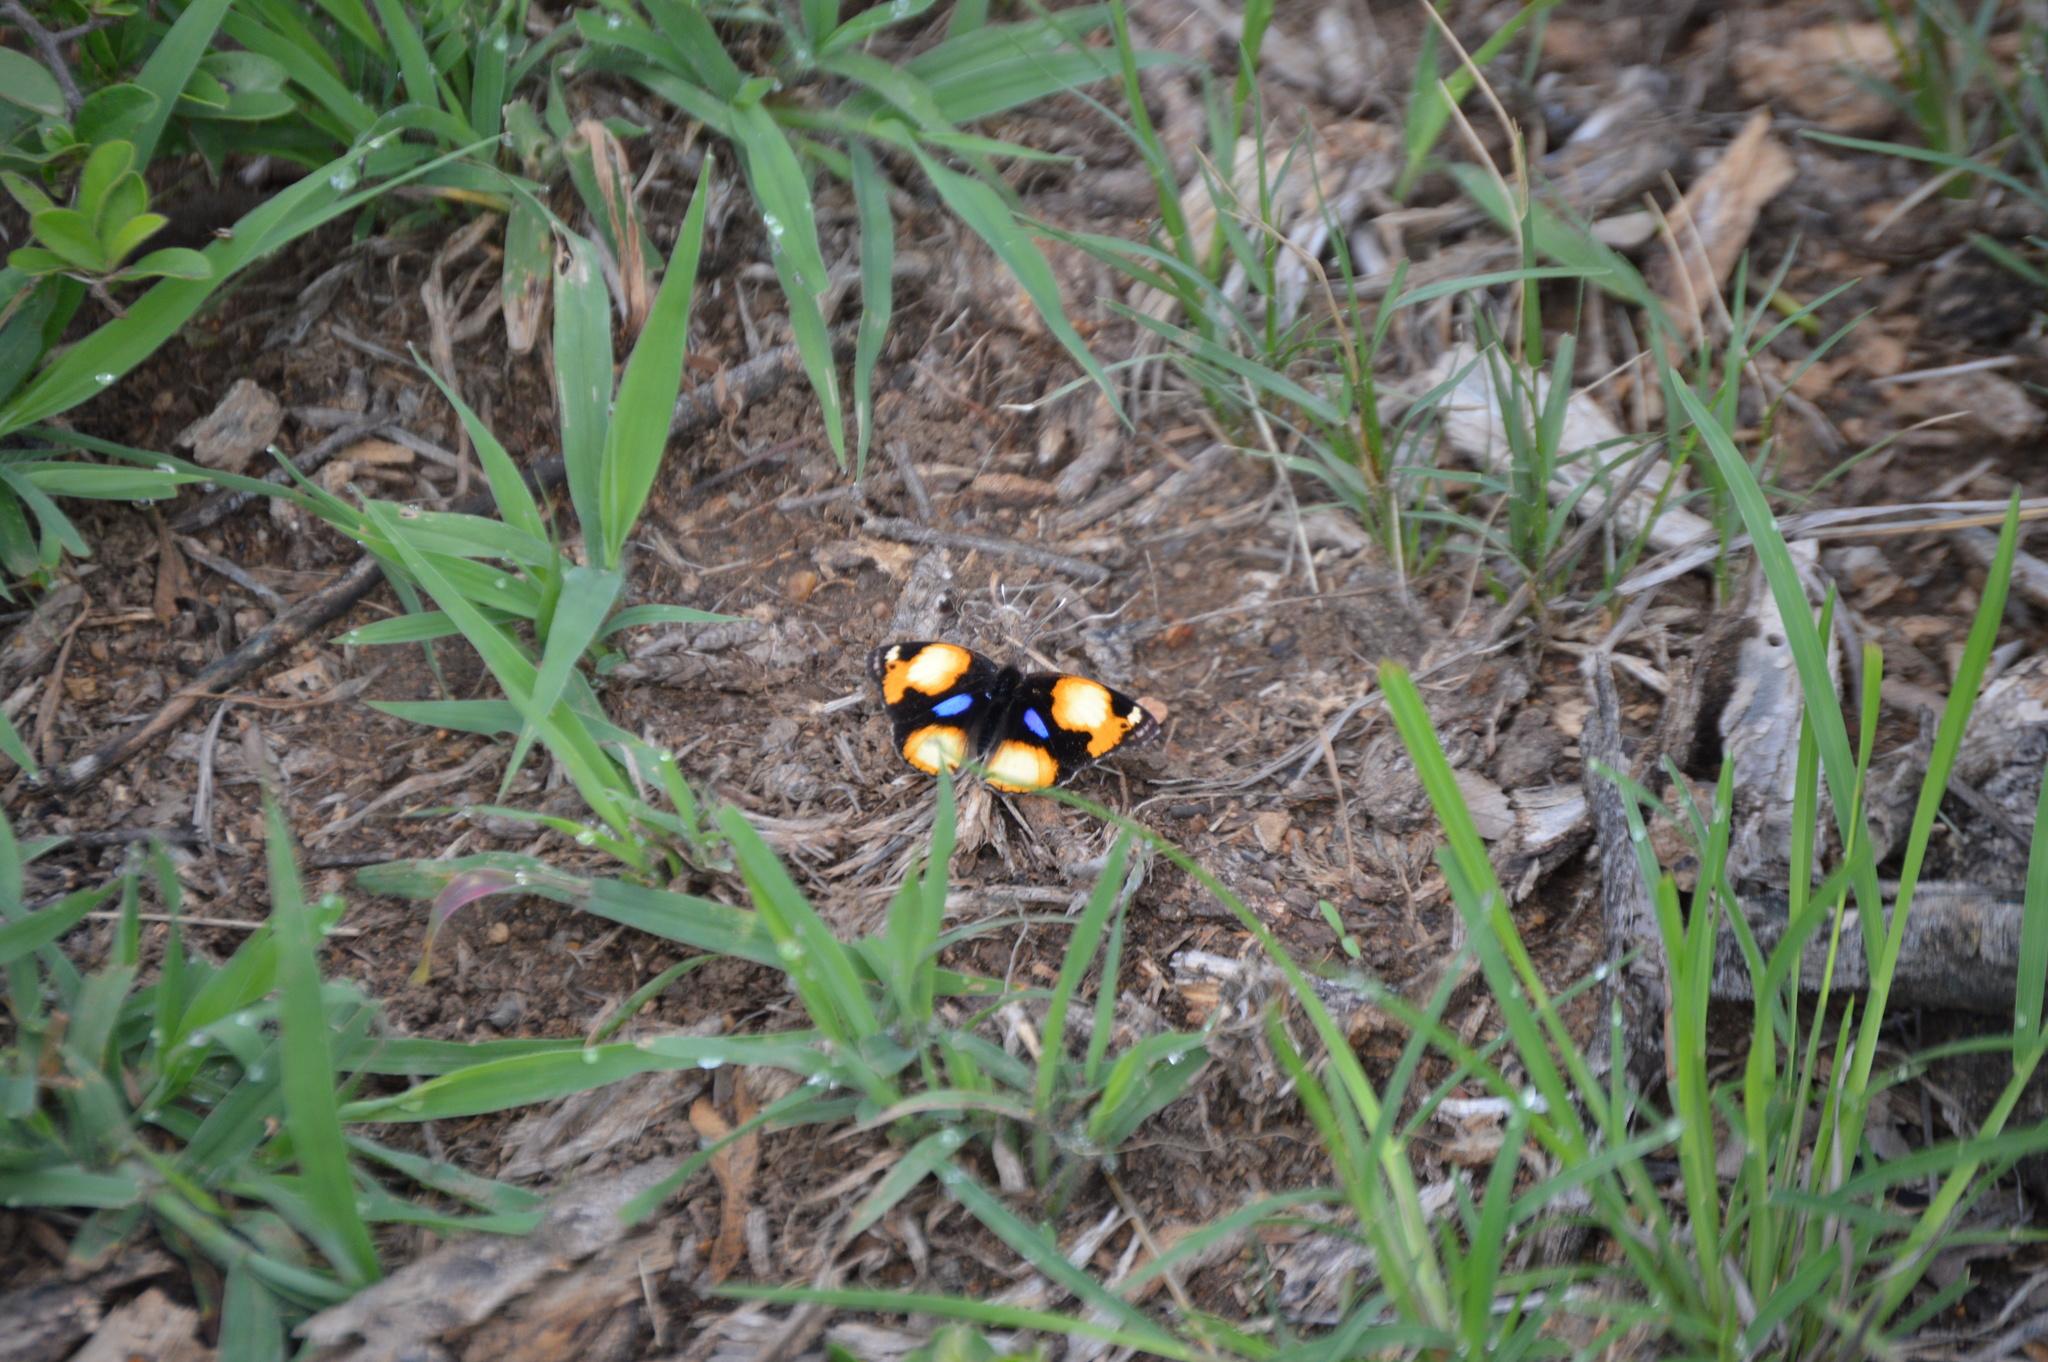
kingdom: Animalia
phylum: Arthropoda
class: Insecta
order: Lepidoptera
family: Nymphalidae
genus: Junonia
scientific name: Junonia hierta
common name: Yellow pansy
